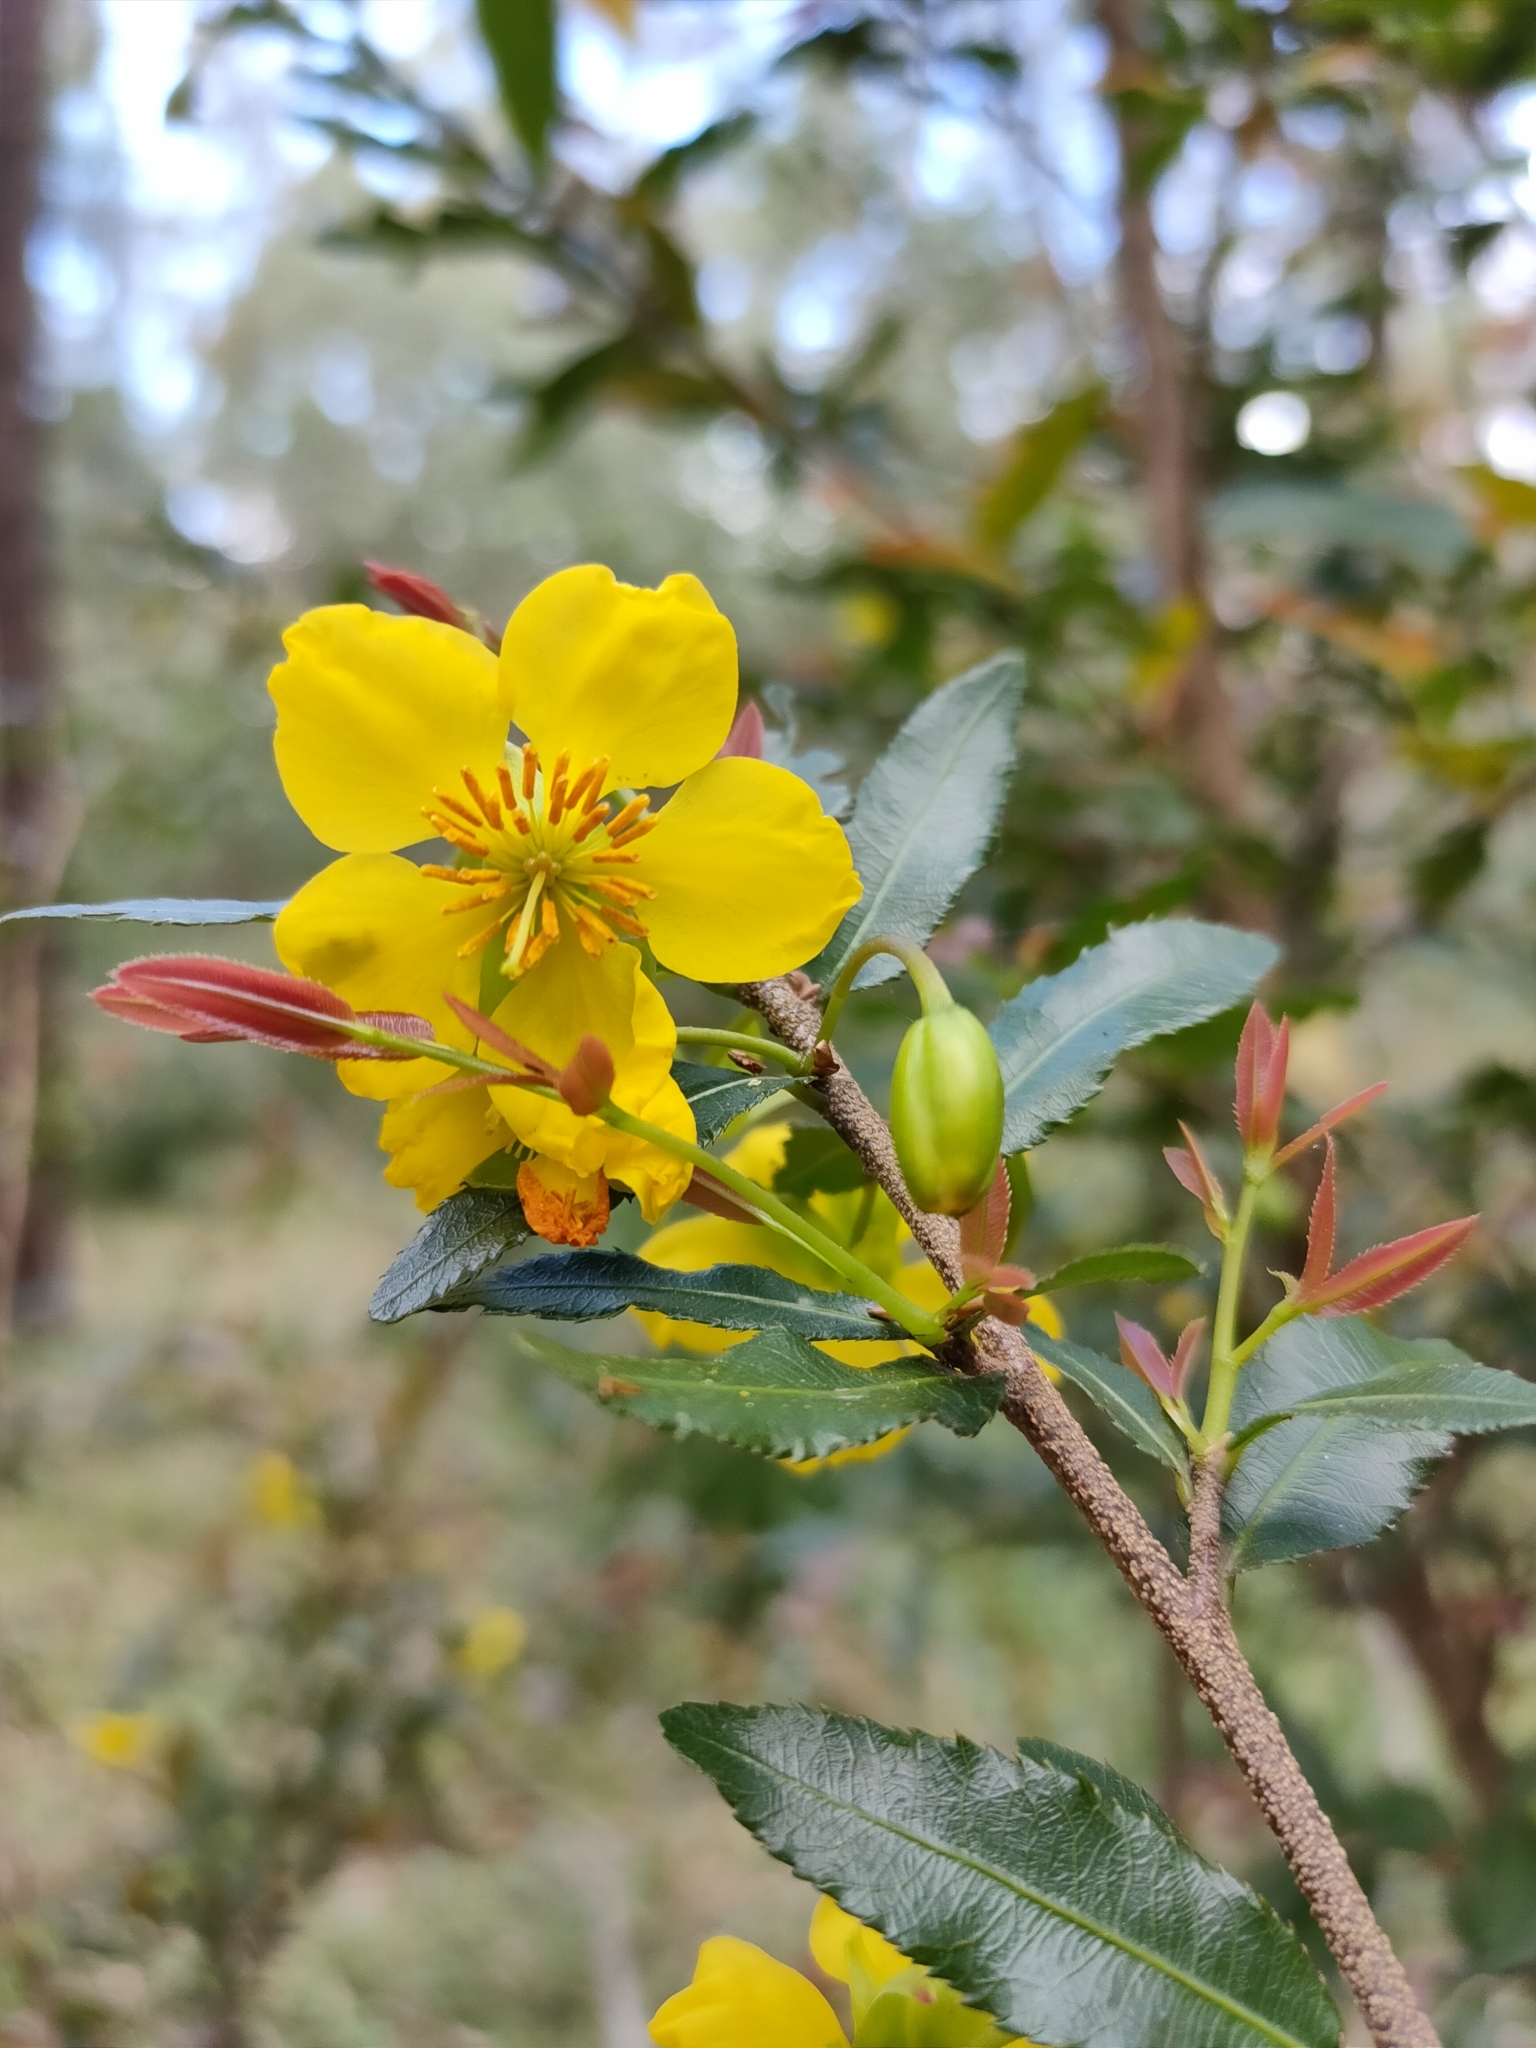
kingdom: Plantae
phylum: Tracheophyta
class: Magnoliopsida
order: Malpighiales
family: Ochnaceae
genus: Ochna
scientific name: Ochna serrulata
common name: Mickey mouse plant
